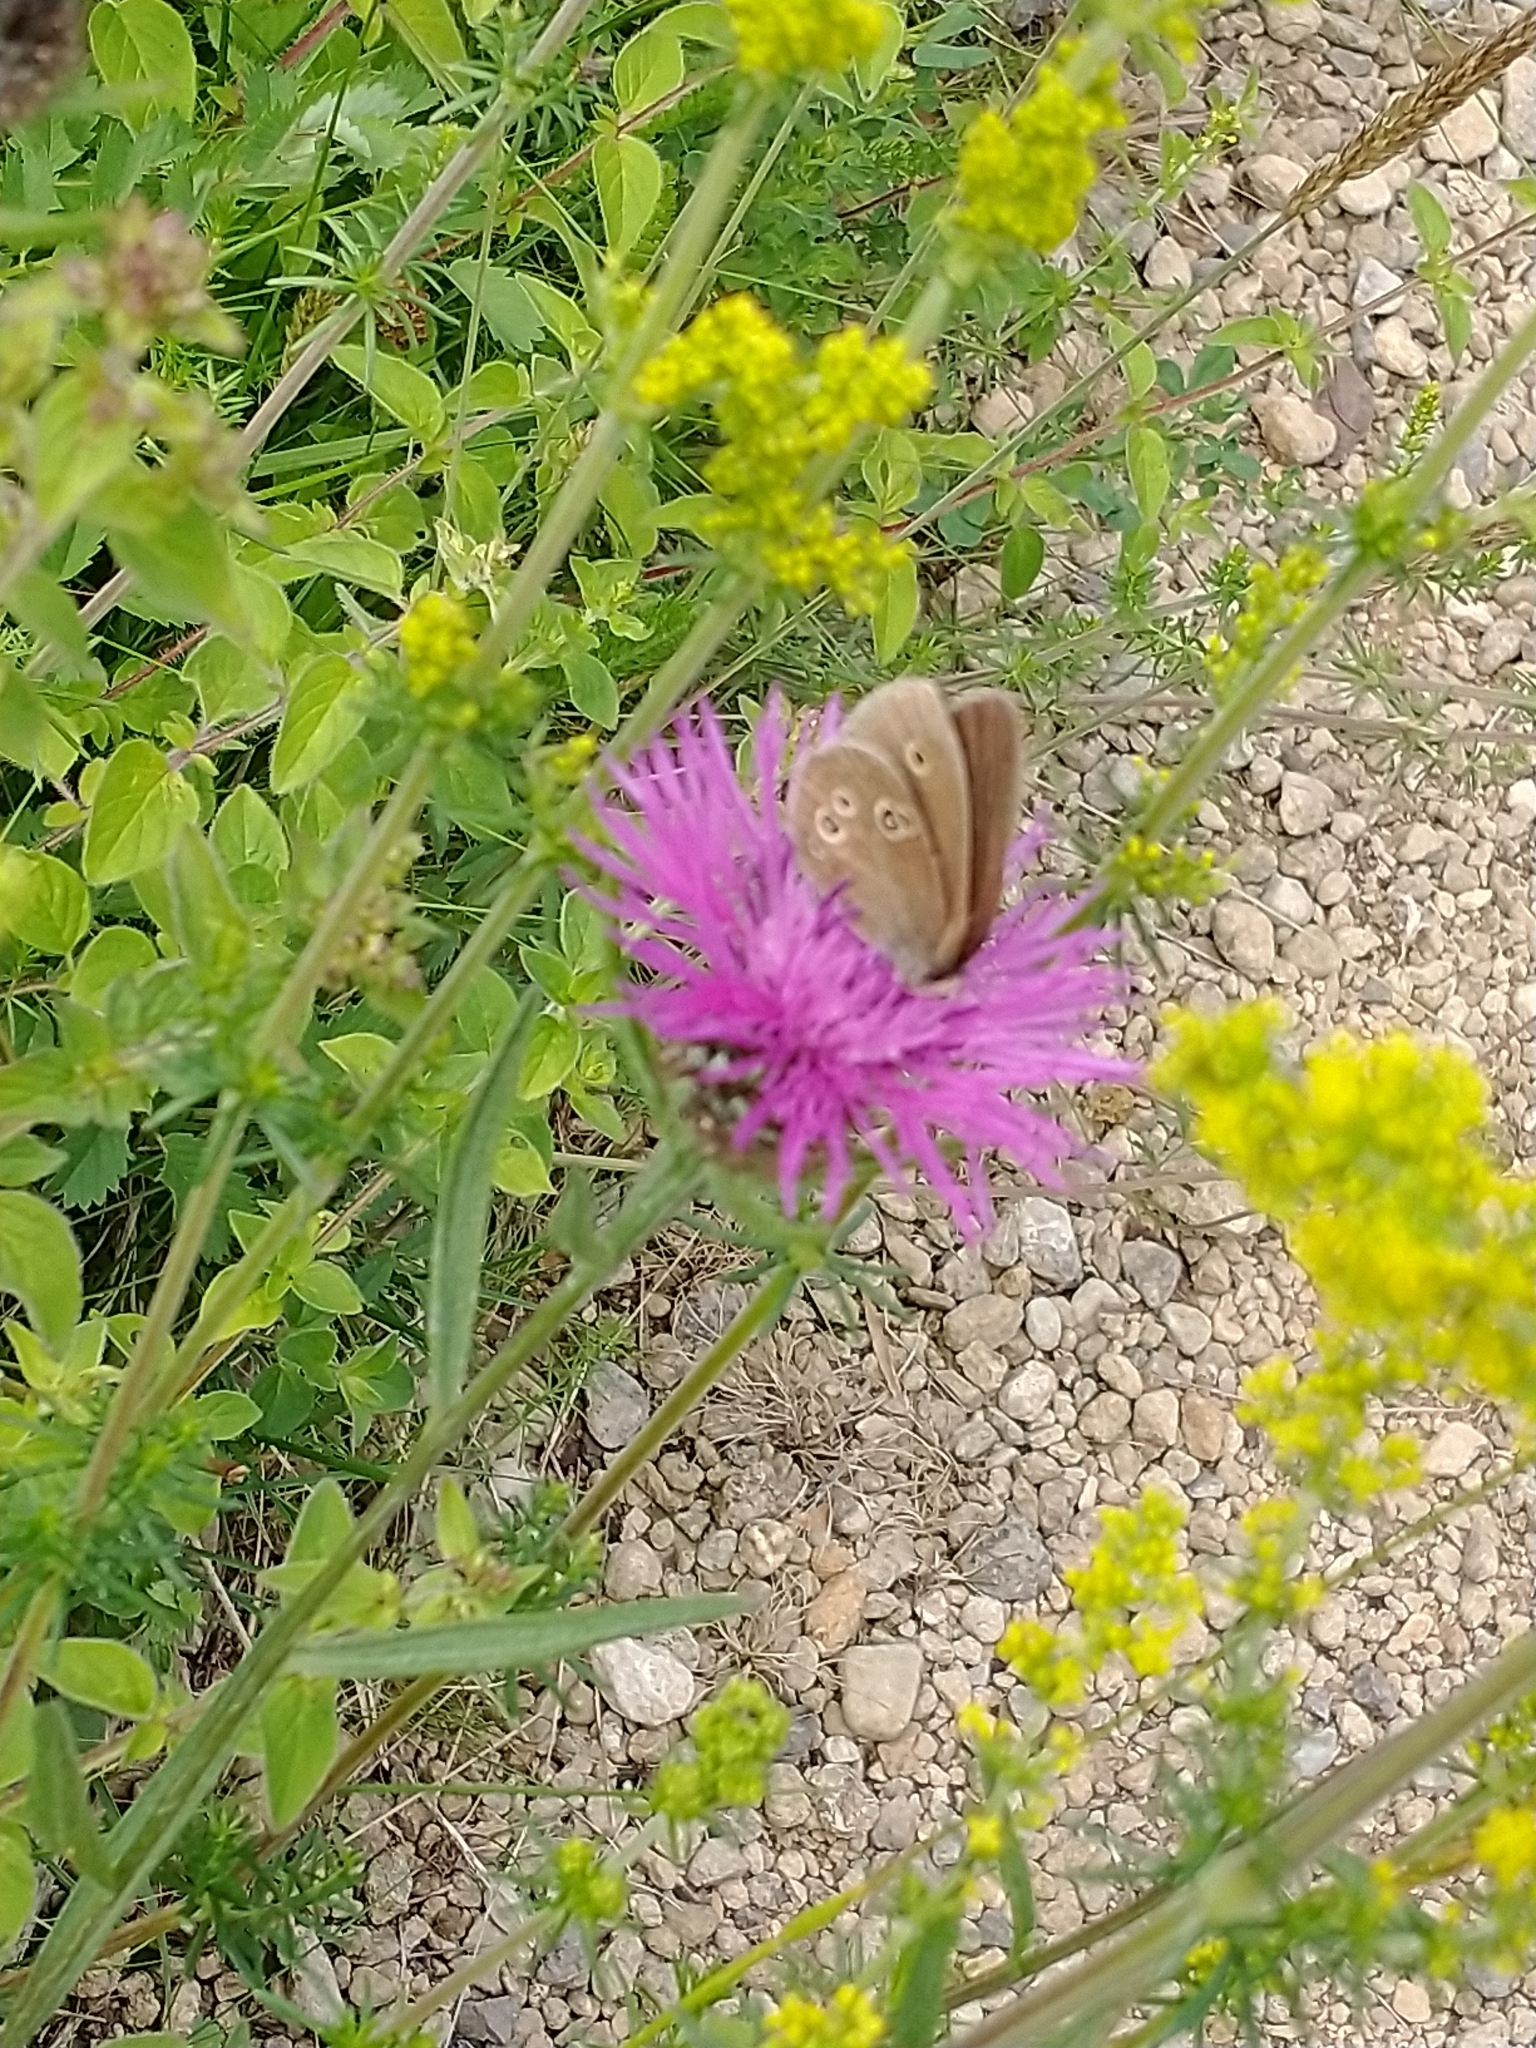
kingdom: Animalia
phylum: Arthropoda
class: Insecta
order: Lepidoptera
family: Nymphalidae
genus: Aphantopus
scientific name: Aphantopus hyperantus
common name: Ringlet
